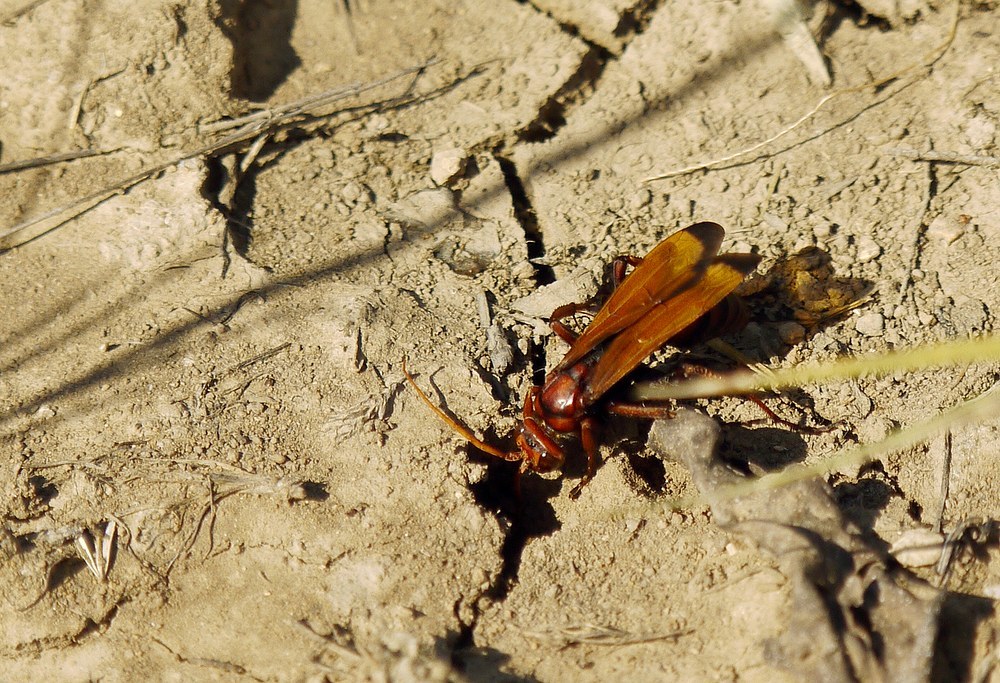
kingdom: Animalia
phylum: Arthropoda
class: Insecta
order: Hymenoptera
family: Pompilidae
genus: Cryptocheilus
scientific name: Cryptocheilus rubellus
